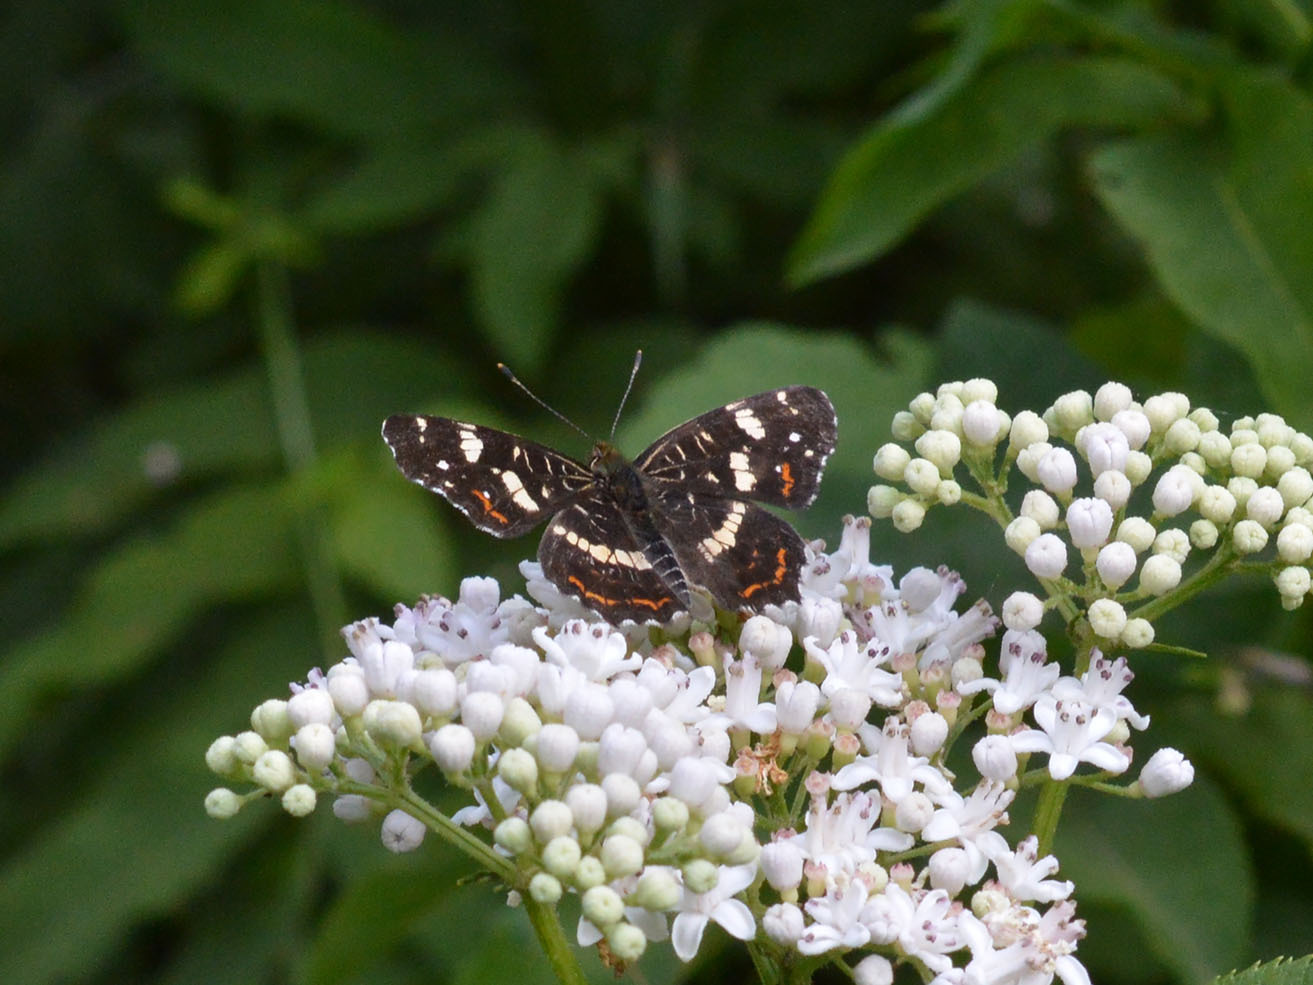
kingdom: Animalia
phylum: Arthropoda
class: Insecta
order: Lepidoptera
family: Nymphalidae
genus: Araschnia
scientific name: Araschnia levana
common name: Map butterfly
